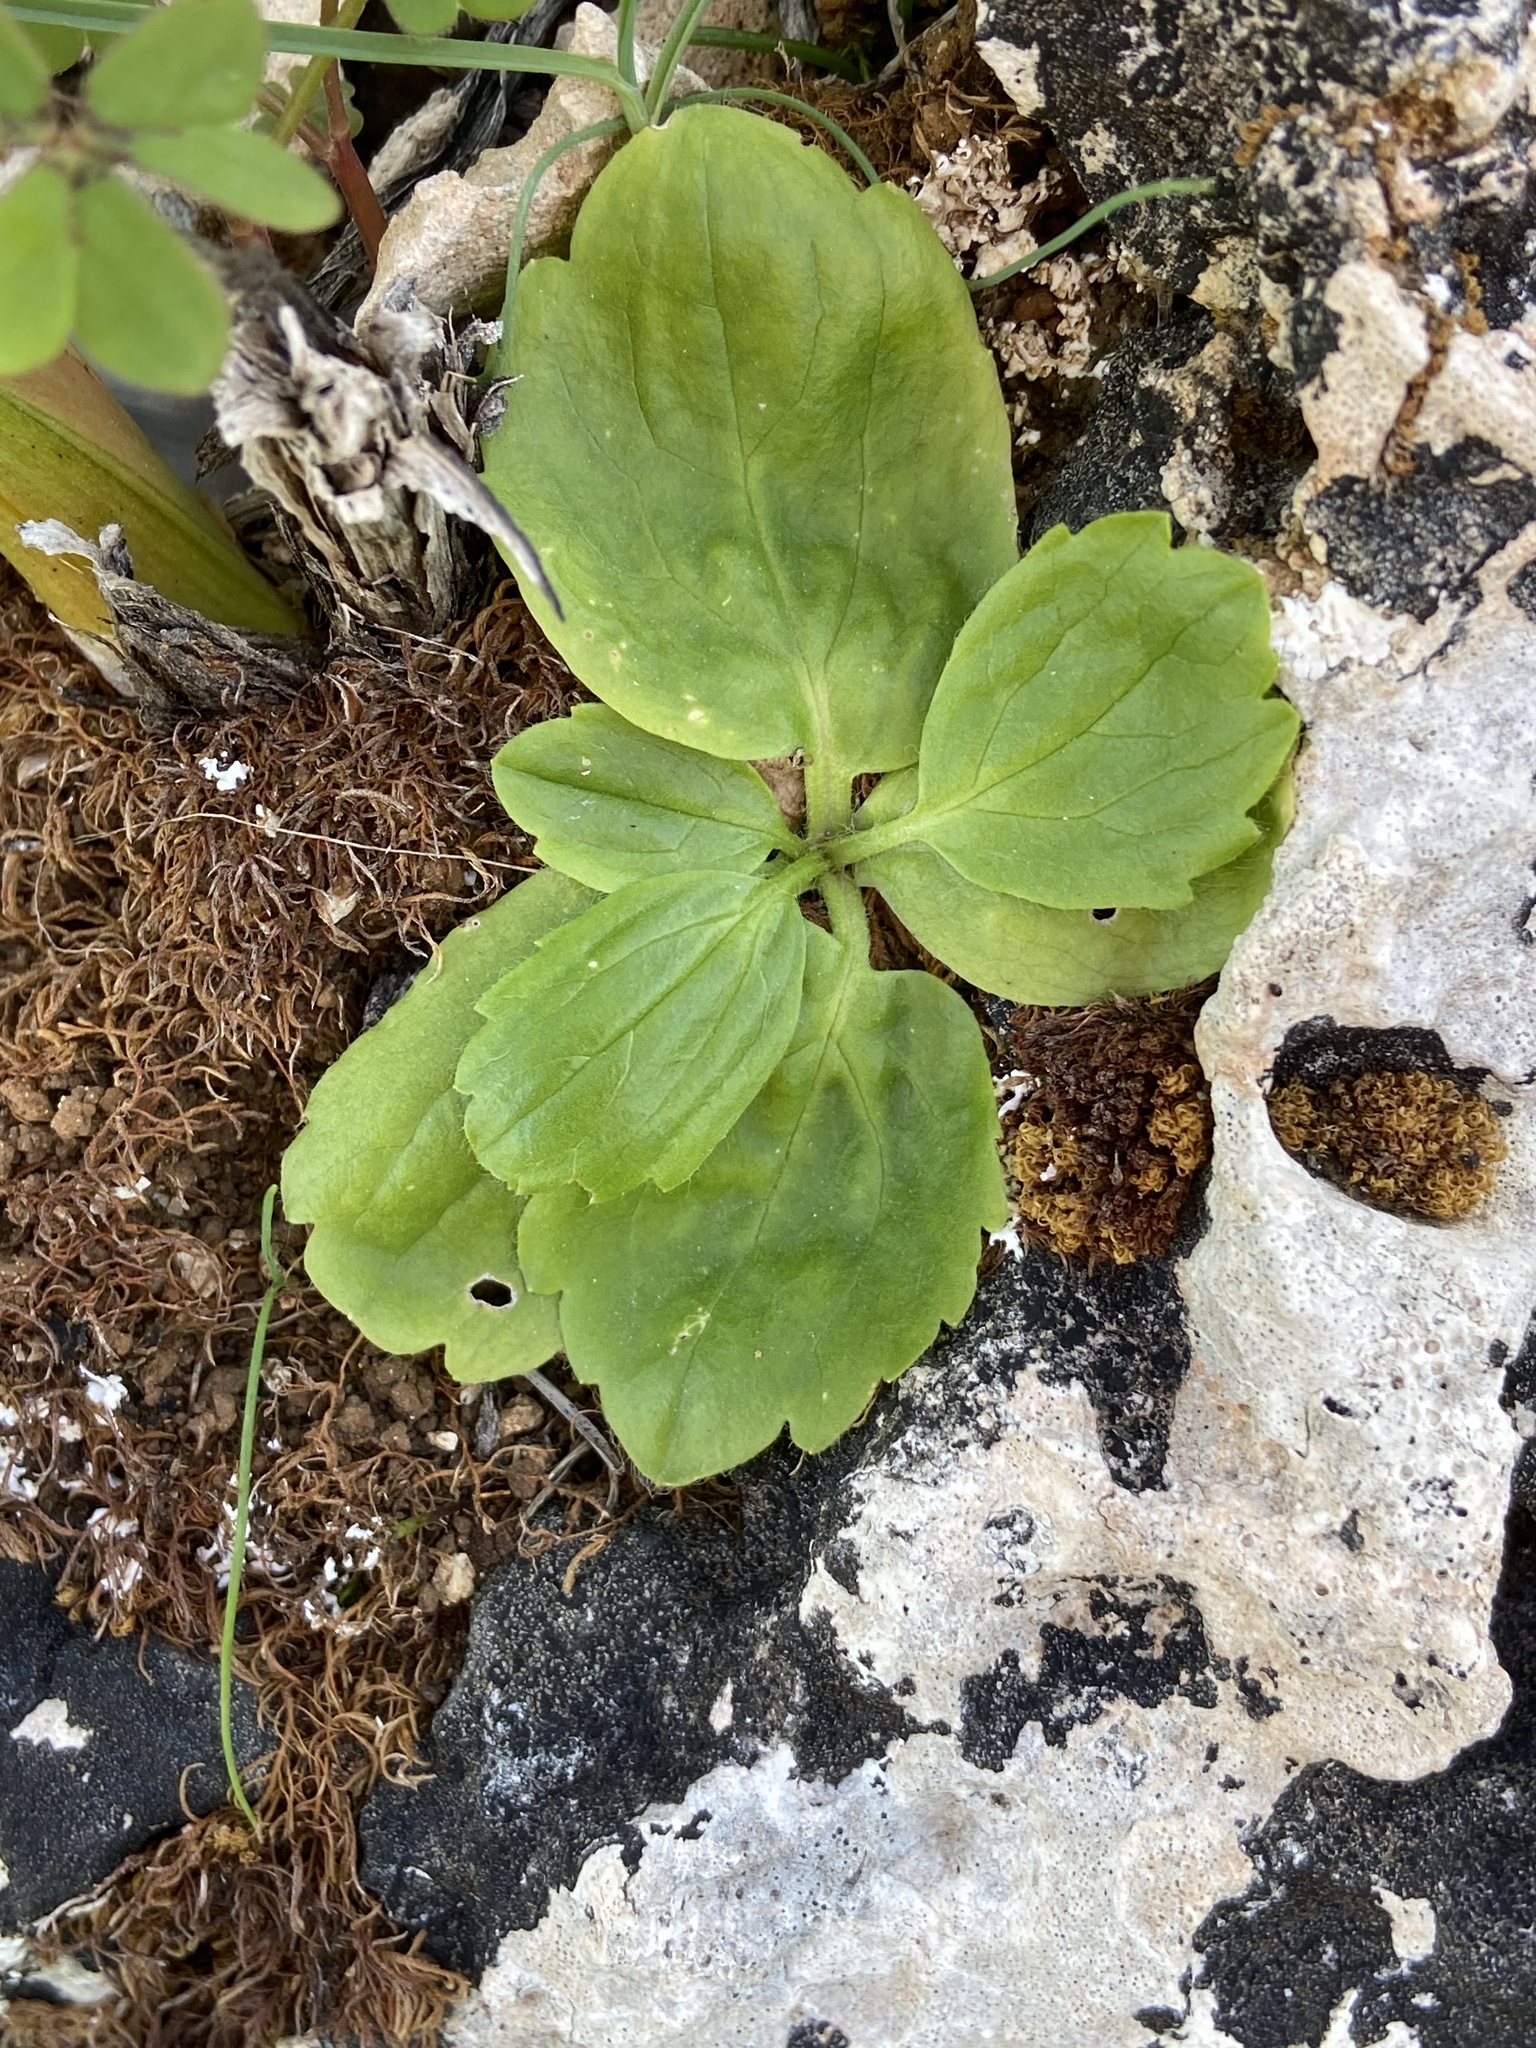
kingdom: Plantae
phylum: Tracheophyta
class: Magnoliopsida
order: Ranunculales
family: Ranunculaceae
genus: Ranunculus
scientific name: Ranunculus bullatus
